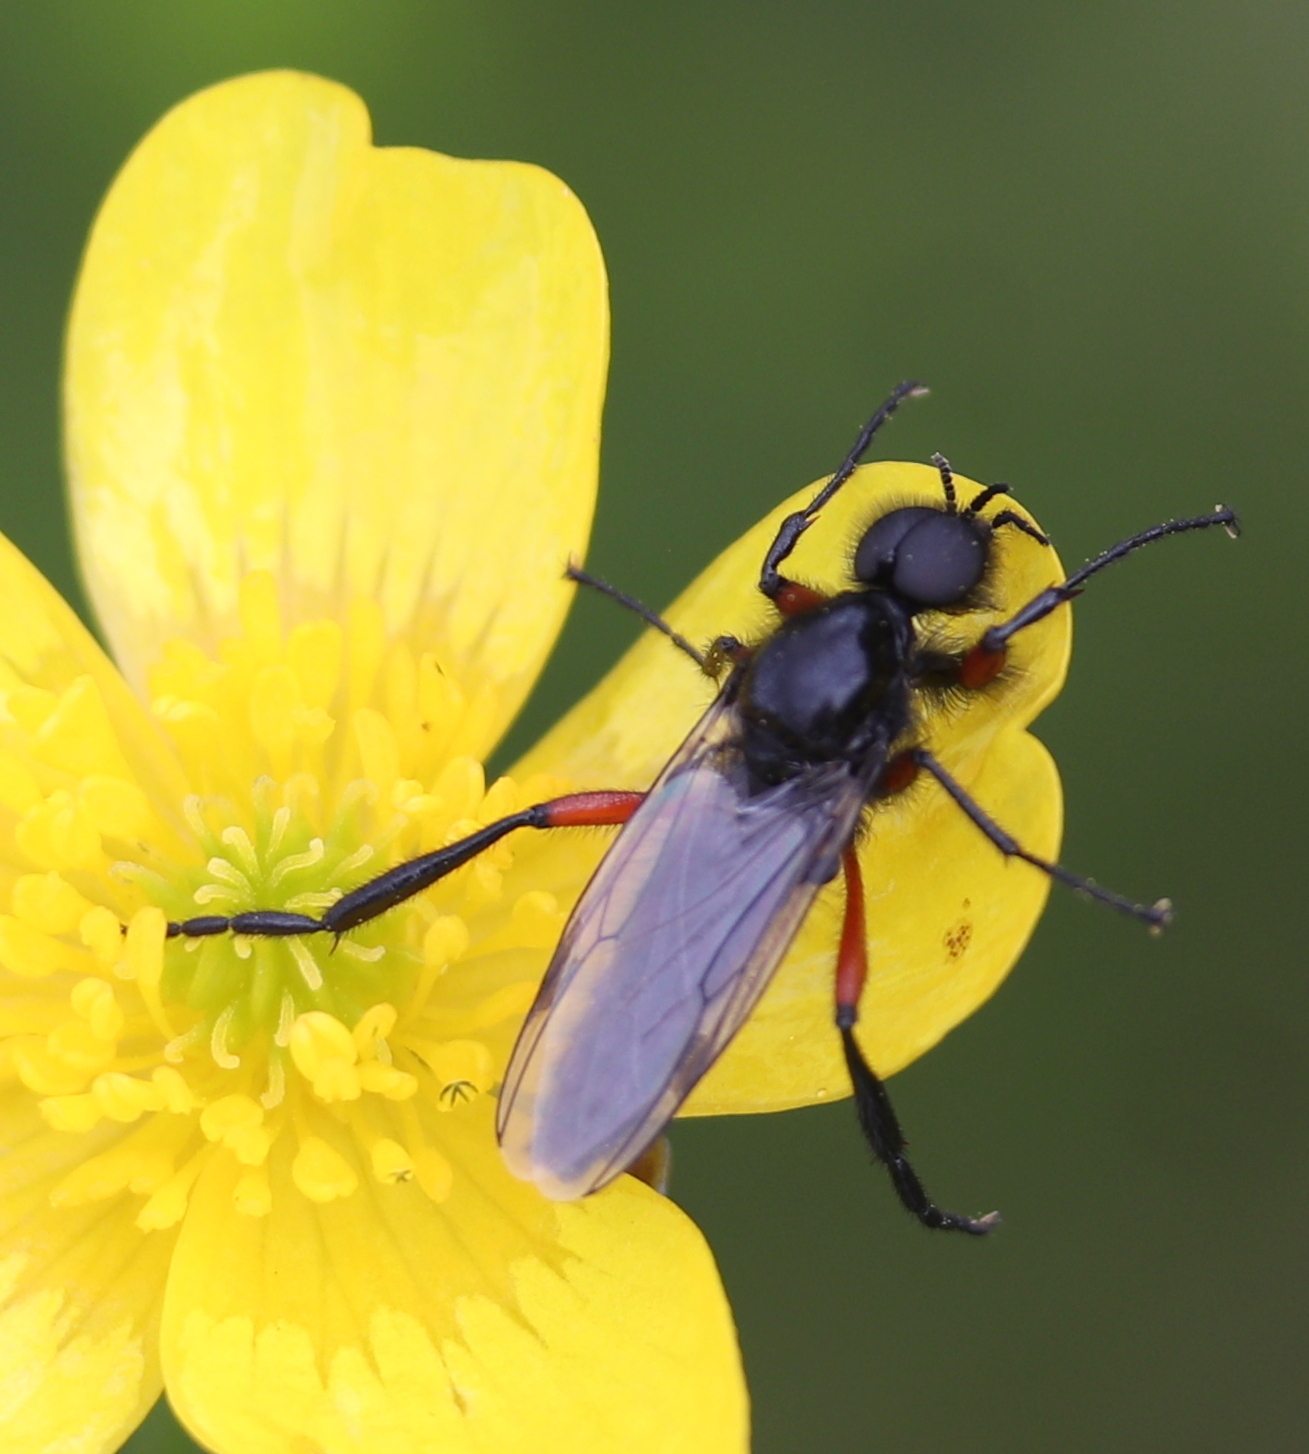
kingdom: Animalia
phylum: Arthropoda
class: Insecta
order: Diptera
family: Bibionidae
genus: Bibio
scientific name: Bibio pomonae
